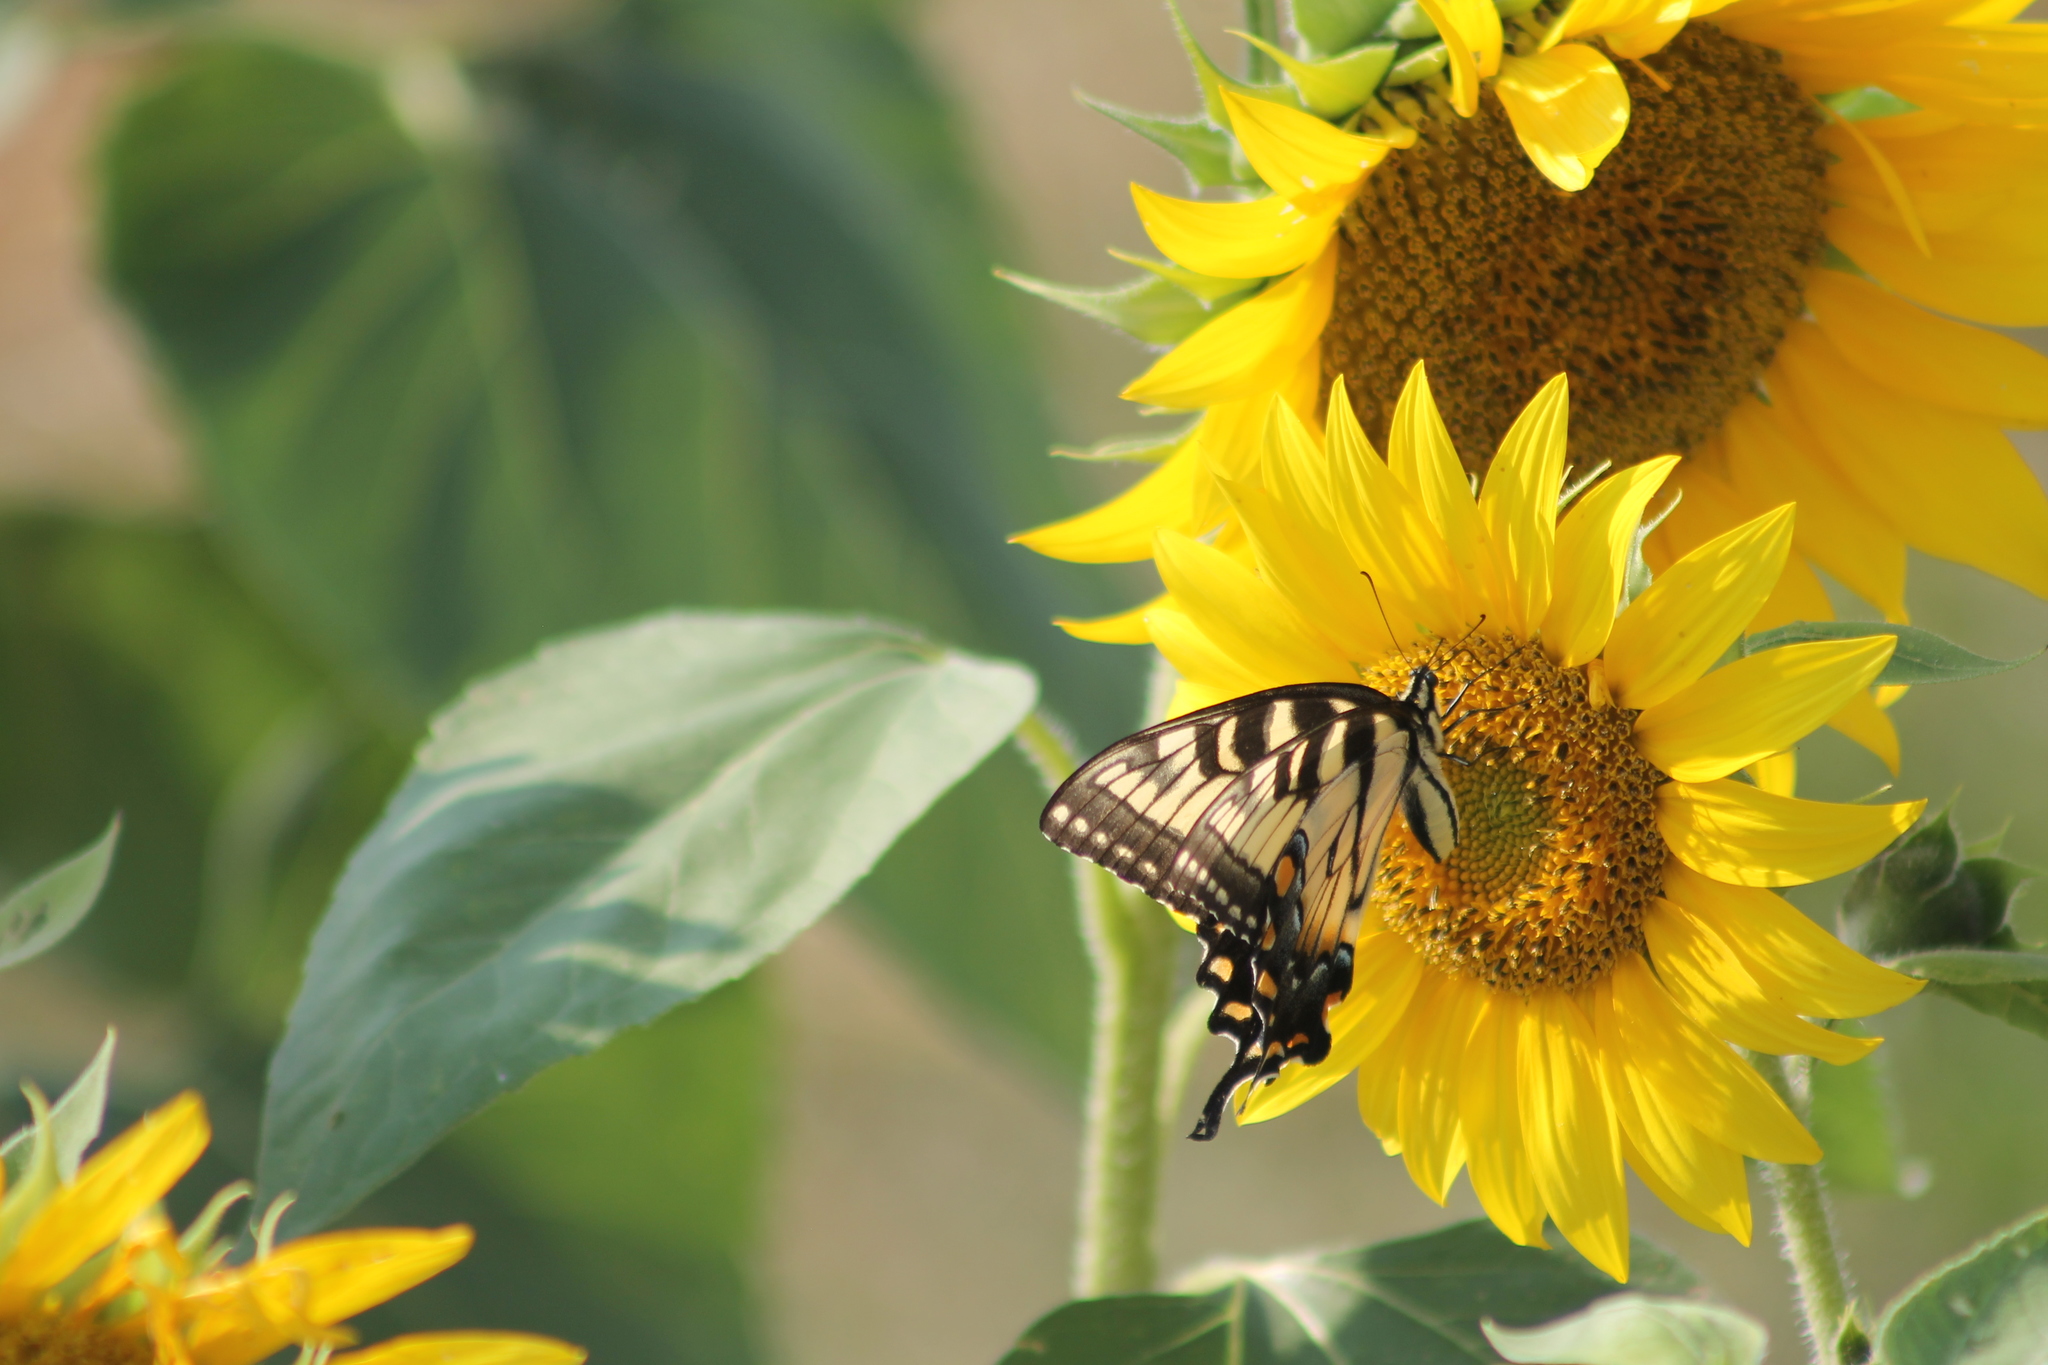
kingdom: Animalia
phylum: Arthropoda
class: Insecta
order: Lepidoptera
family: Papilionidae
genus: Papilio
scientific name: Papilio glaucus
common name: Tiger swallowtail
